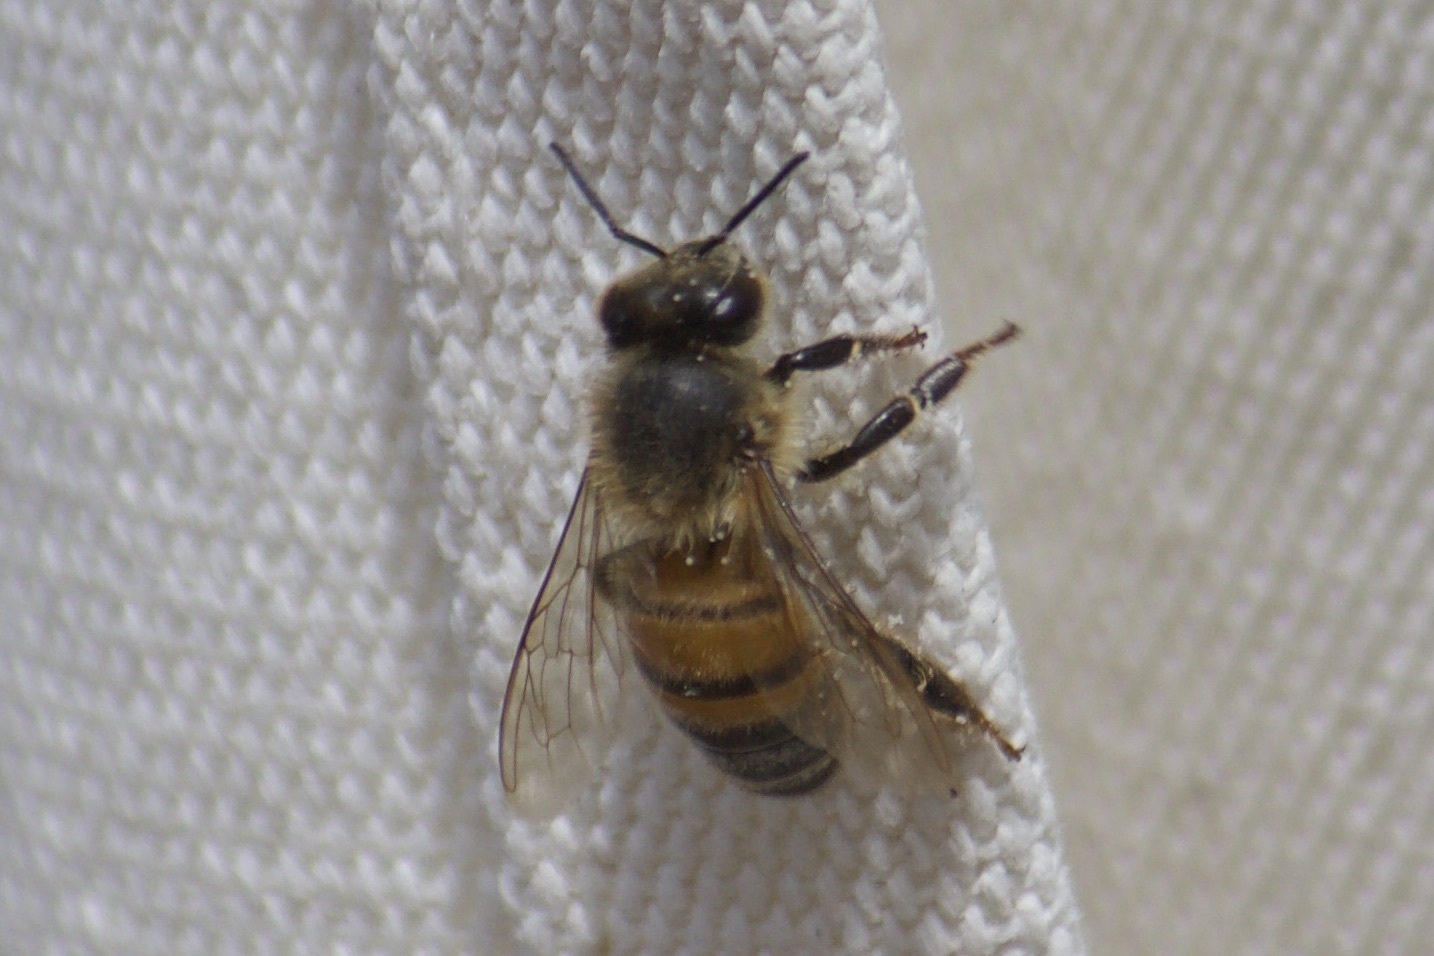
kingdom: Animalia
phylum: Arthropoda
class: Insecta
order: Hymenoptera
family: Apidae
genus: Apis
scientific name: Apis mellifera
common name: Honey bee
